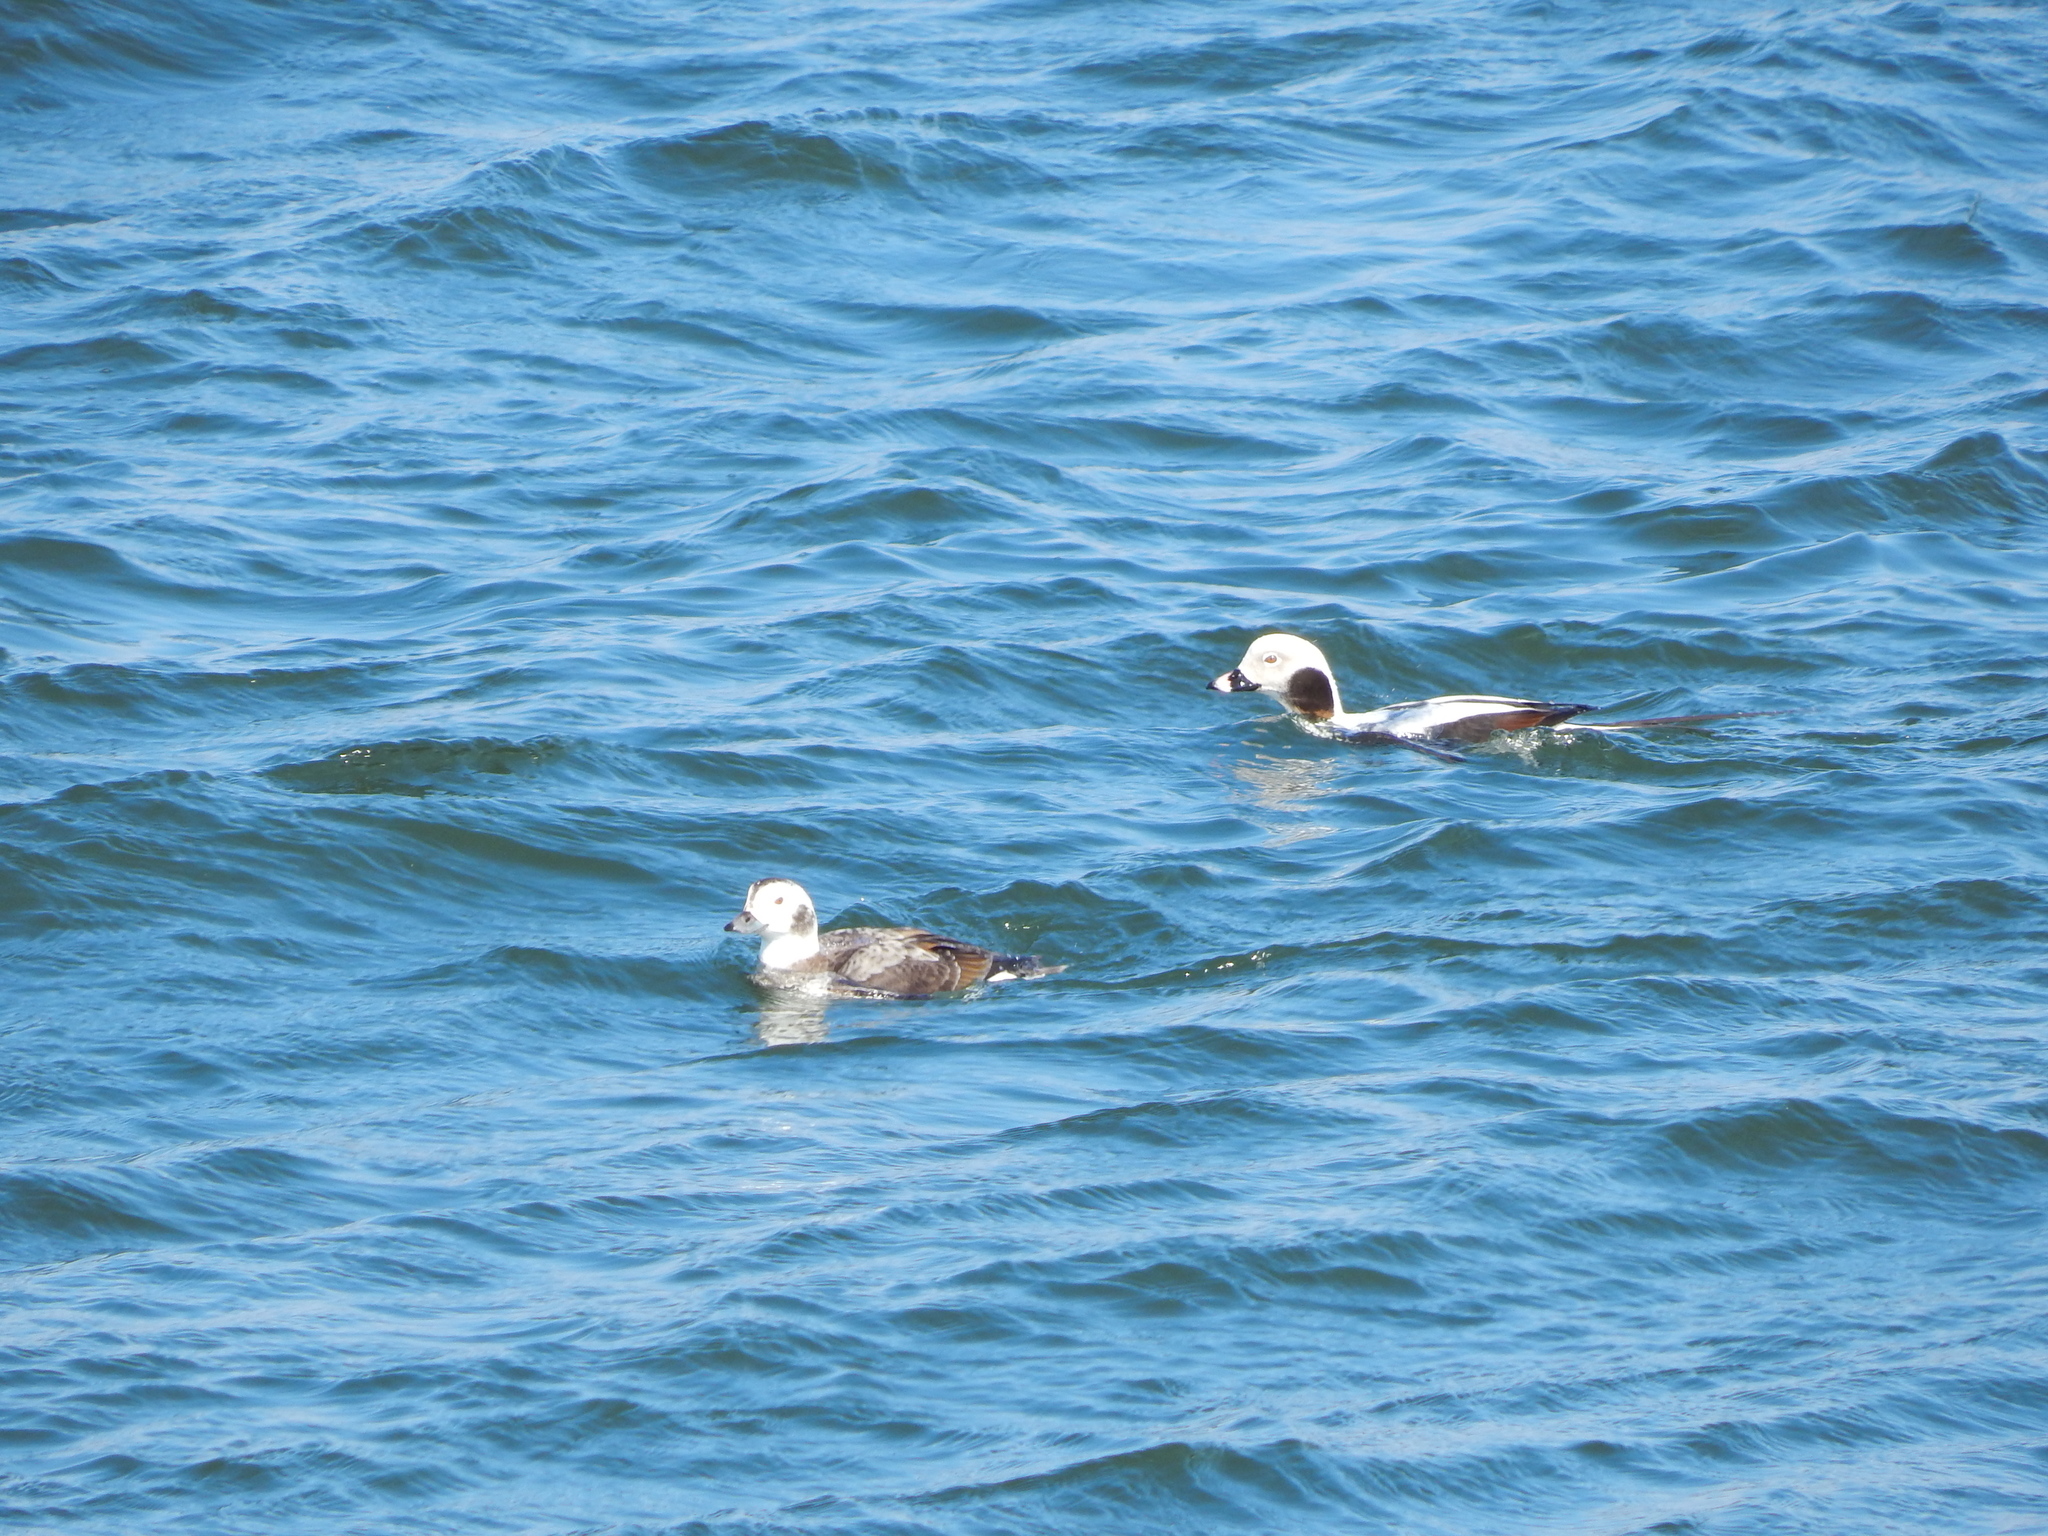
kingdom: Animalia
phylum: Chordata
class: Aves
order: Anseriformes
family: Anatidae
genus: Clangula
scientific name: Clangula hyemalis
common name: Long-tailed duck
